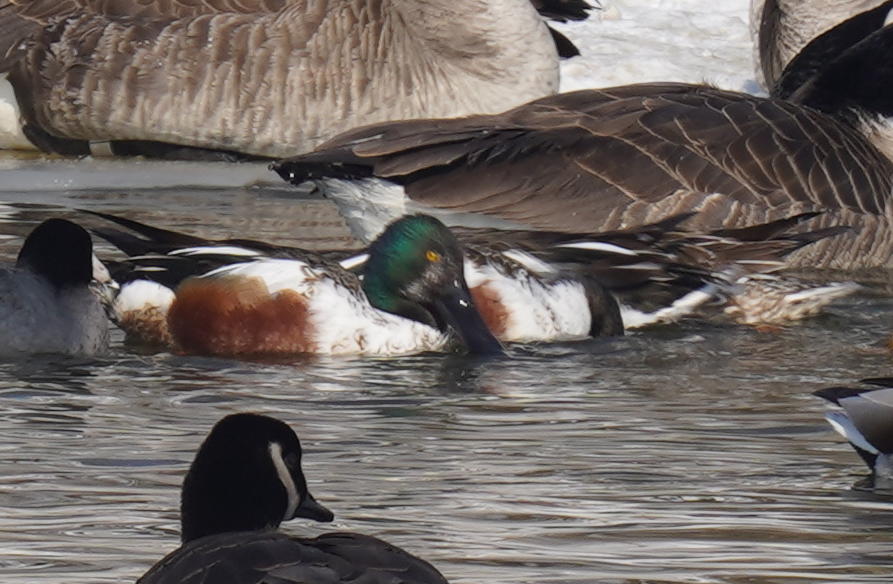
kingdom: Animalia
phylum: Chordata
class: Aves
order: Anseriformes
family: Anatidae
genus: Spatula
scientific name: Spatula clypeata
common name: Northern shoveler
